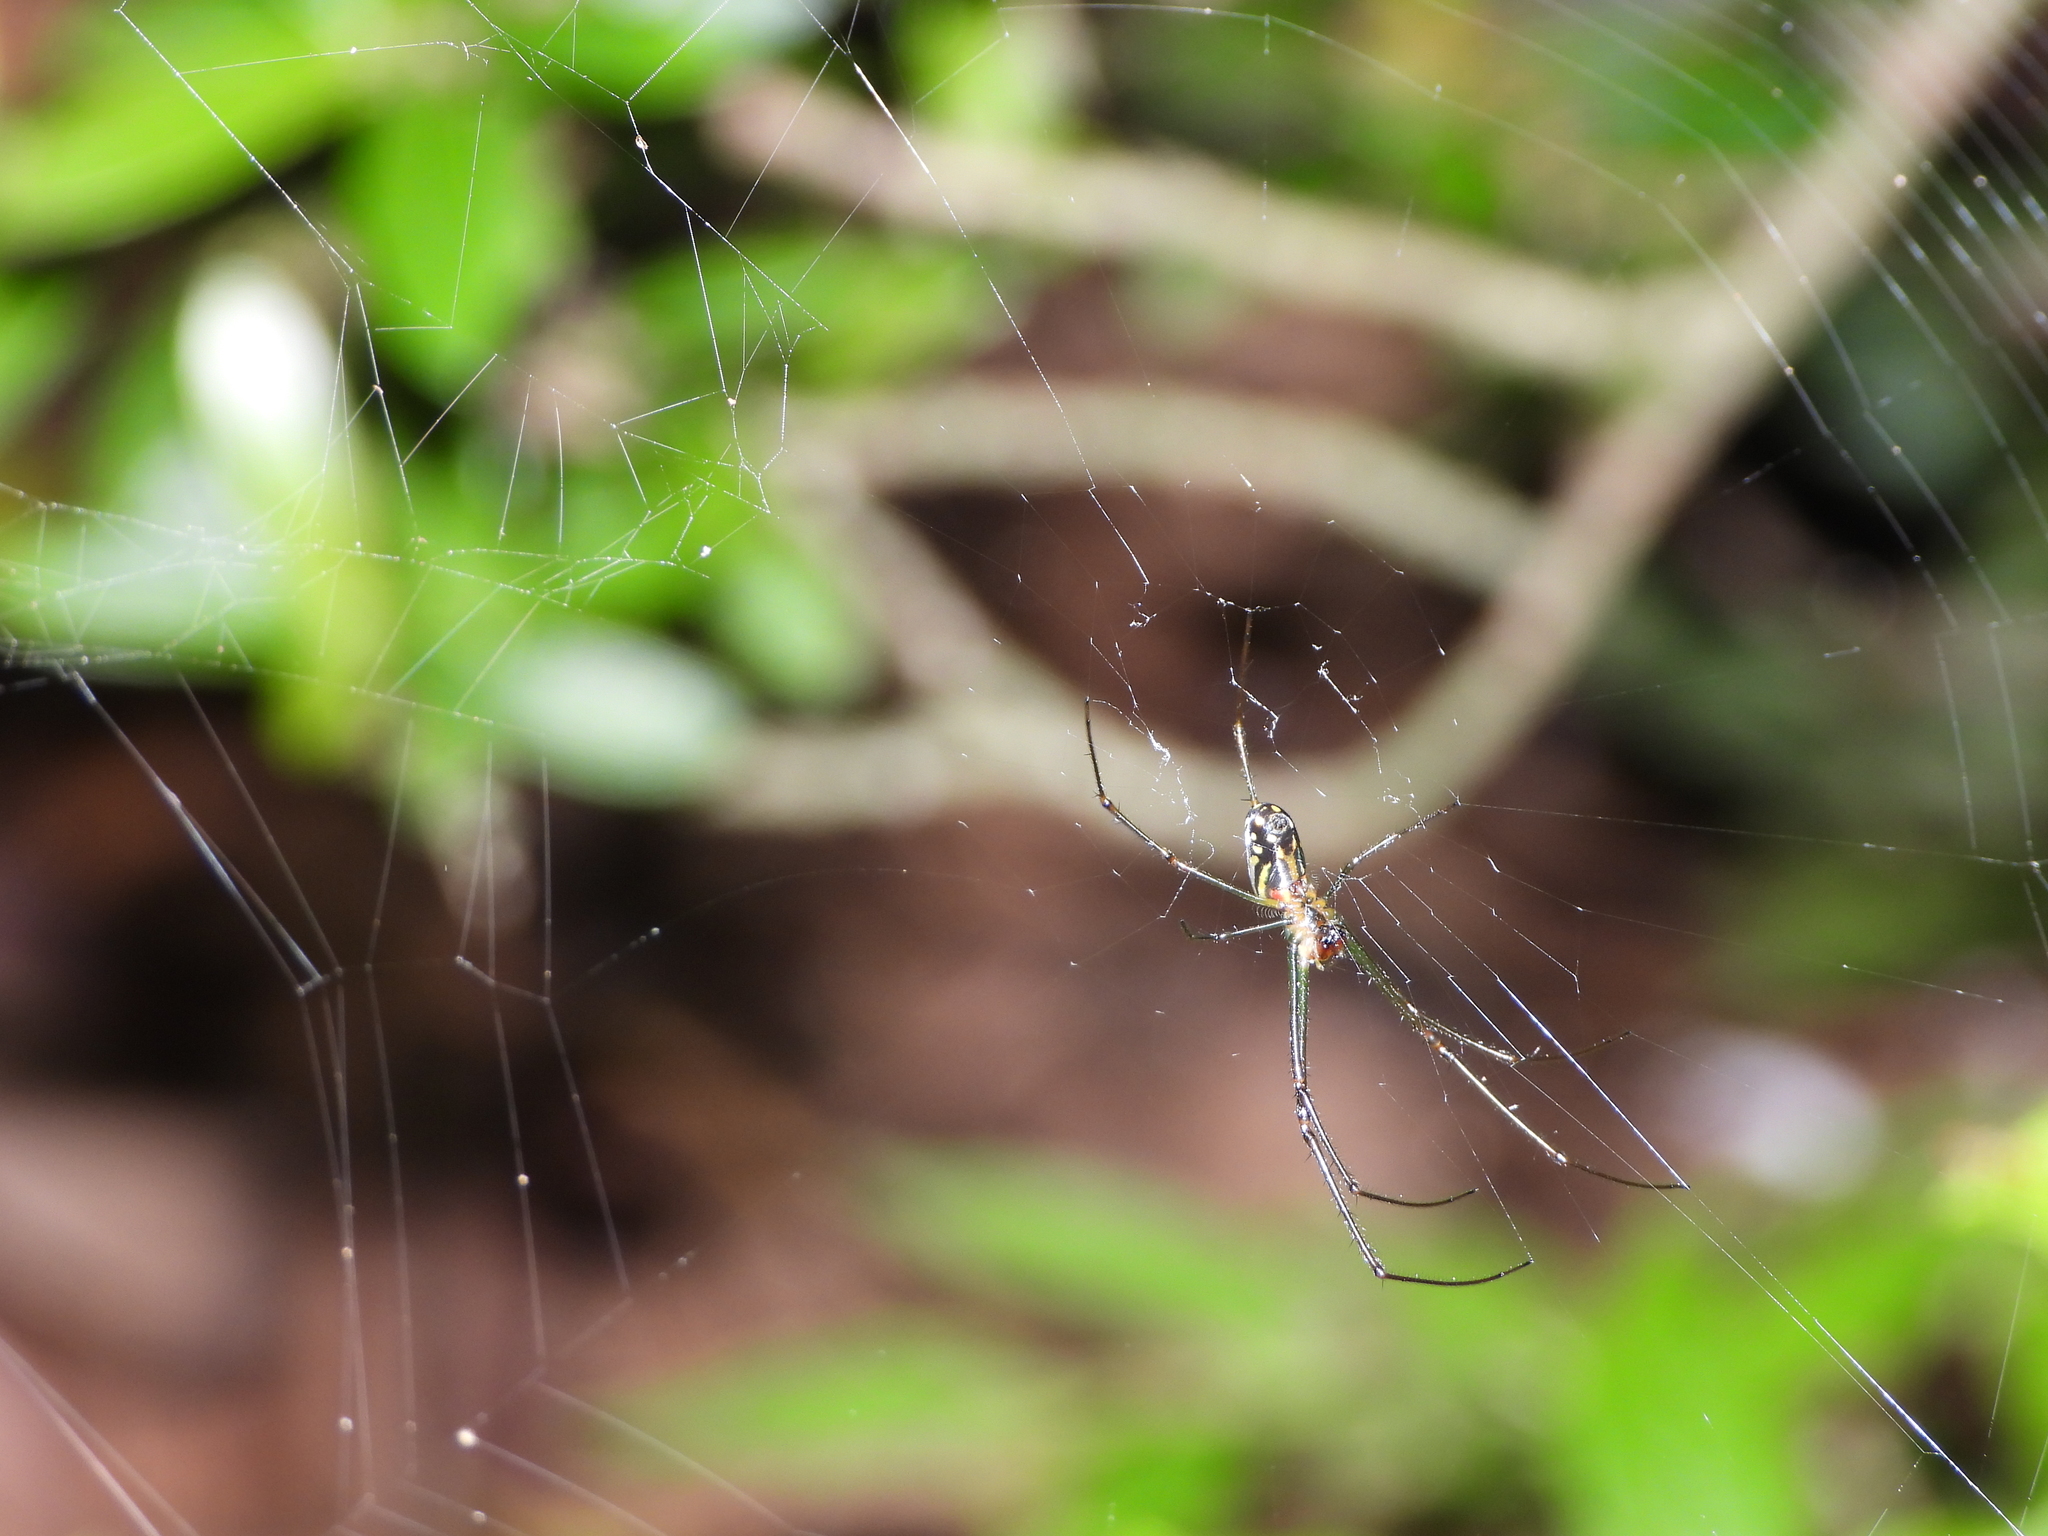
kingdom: Animalia
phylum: Arthropoda
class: Arachnida
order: Araneae
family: Tetragnathidae
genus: Leucauge
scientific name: Leucauge argyra
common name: Longjawed orb weavers
